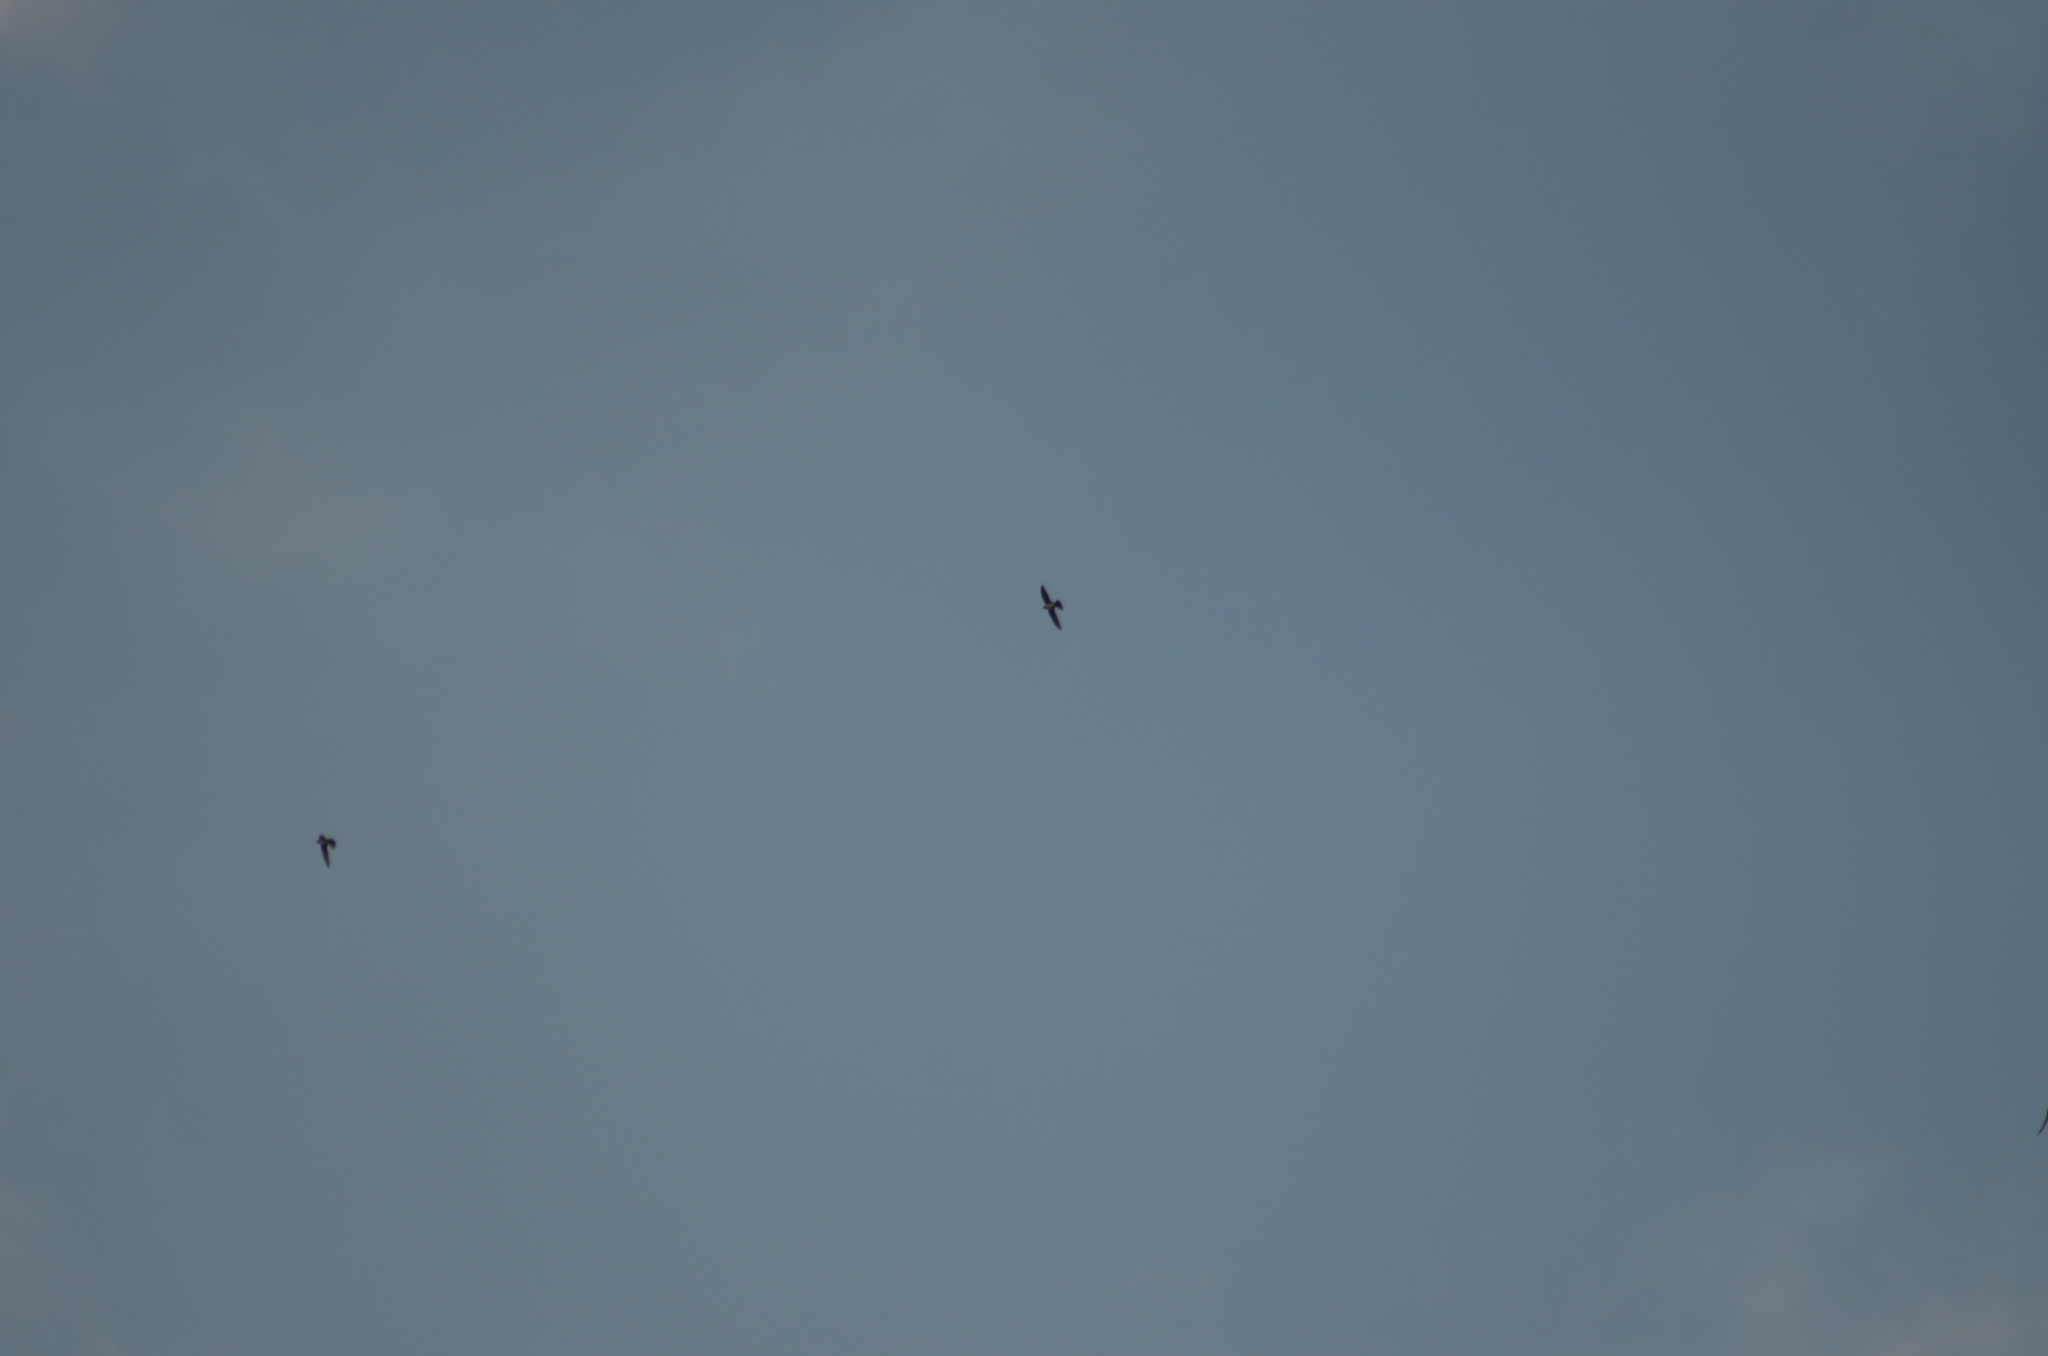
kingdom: Animalia
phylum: Chordata
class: Aves
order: Apodiformes
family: Apodidae
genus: Tachymarptis
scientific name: Tachymarptis melba
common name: Alpine swift
